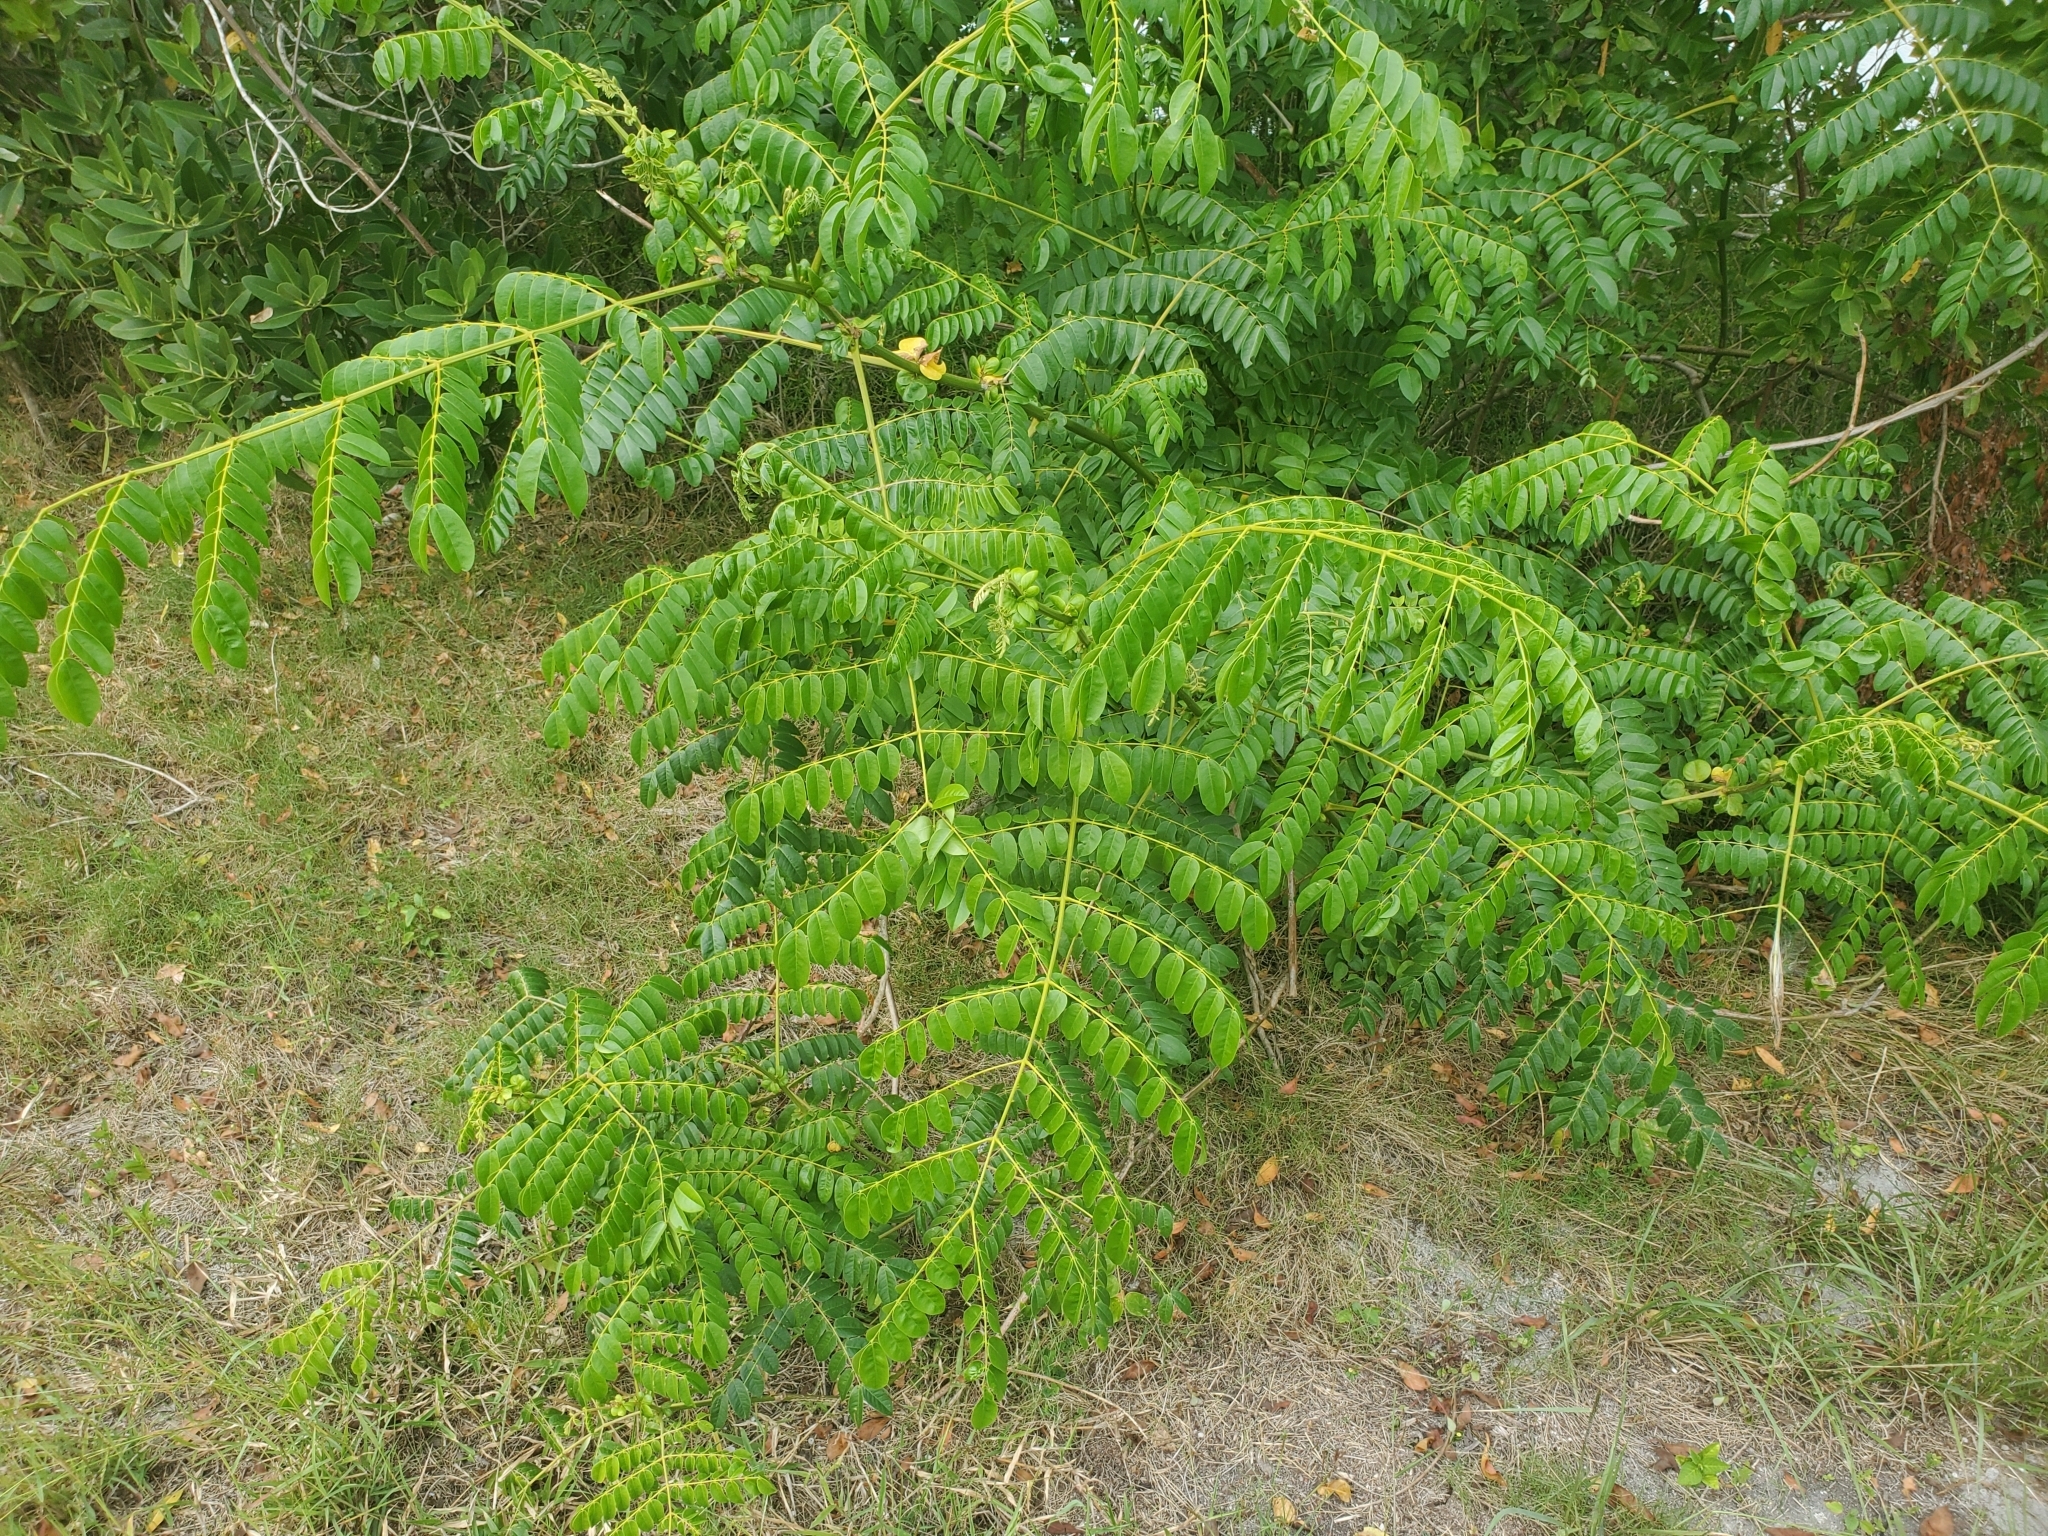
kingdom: Plantae
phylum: Tracheophyta
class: Magnoliopsida
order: Fabales
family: Fabaceae
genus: Guilandina
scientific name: Guilandina bonduc
